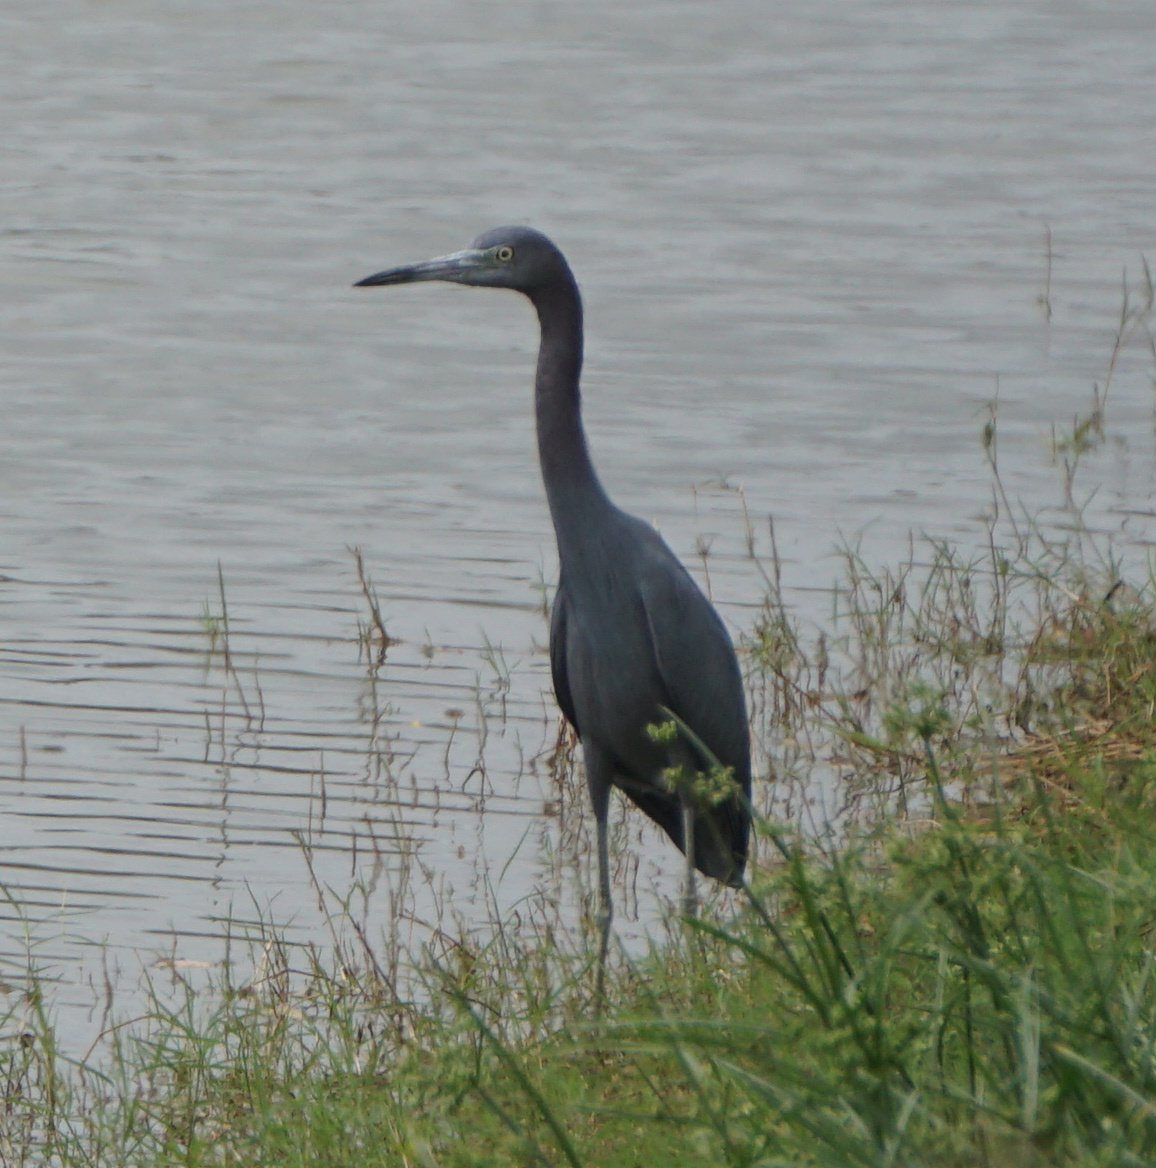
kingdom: Animalia
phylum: Chordata
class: Aves
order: Pelecaniformes
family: Ardeidae
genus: Egretta
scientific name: Egretta caerulea
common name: Little blue heron
